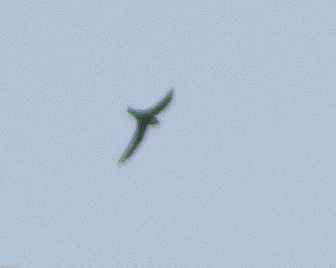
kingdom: Animalia
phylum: Chordata
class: Aves
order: Apodiformes
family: Apodidae
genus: Cypseloides
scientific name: Cypseloides niger
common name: Black swift
